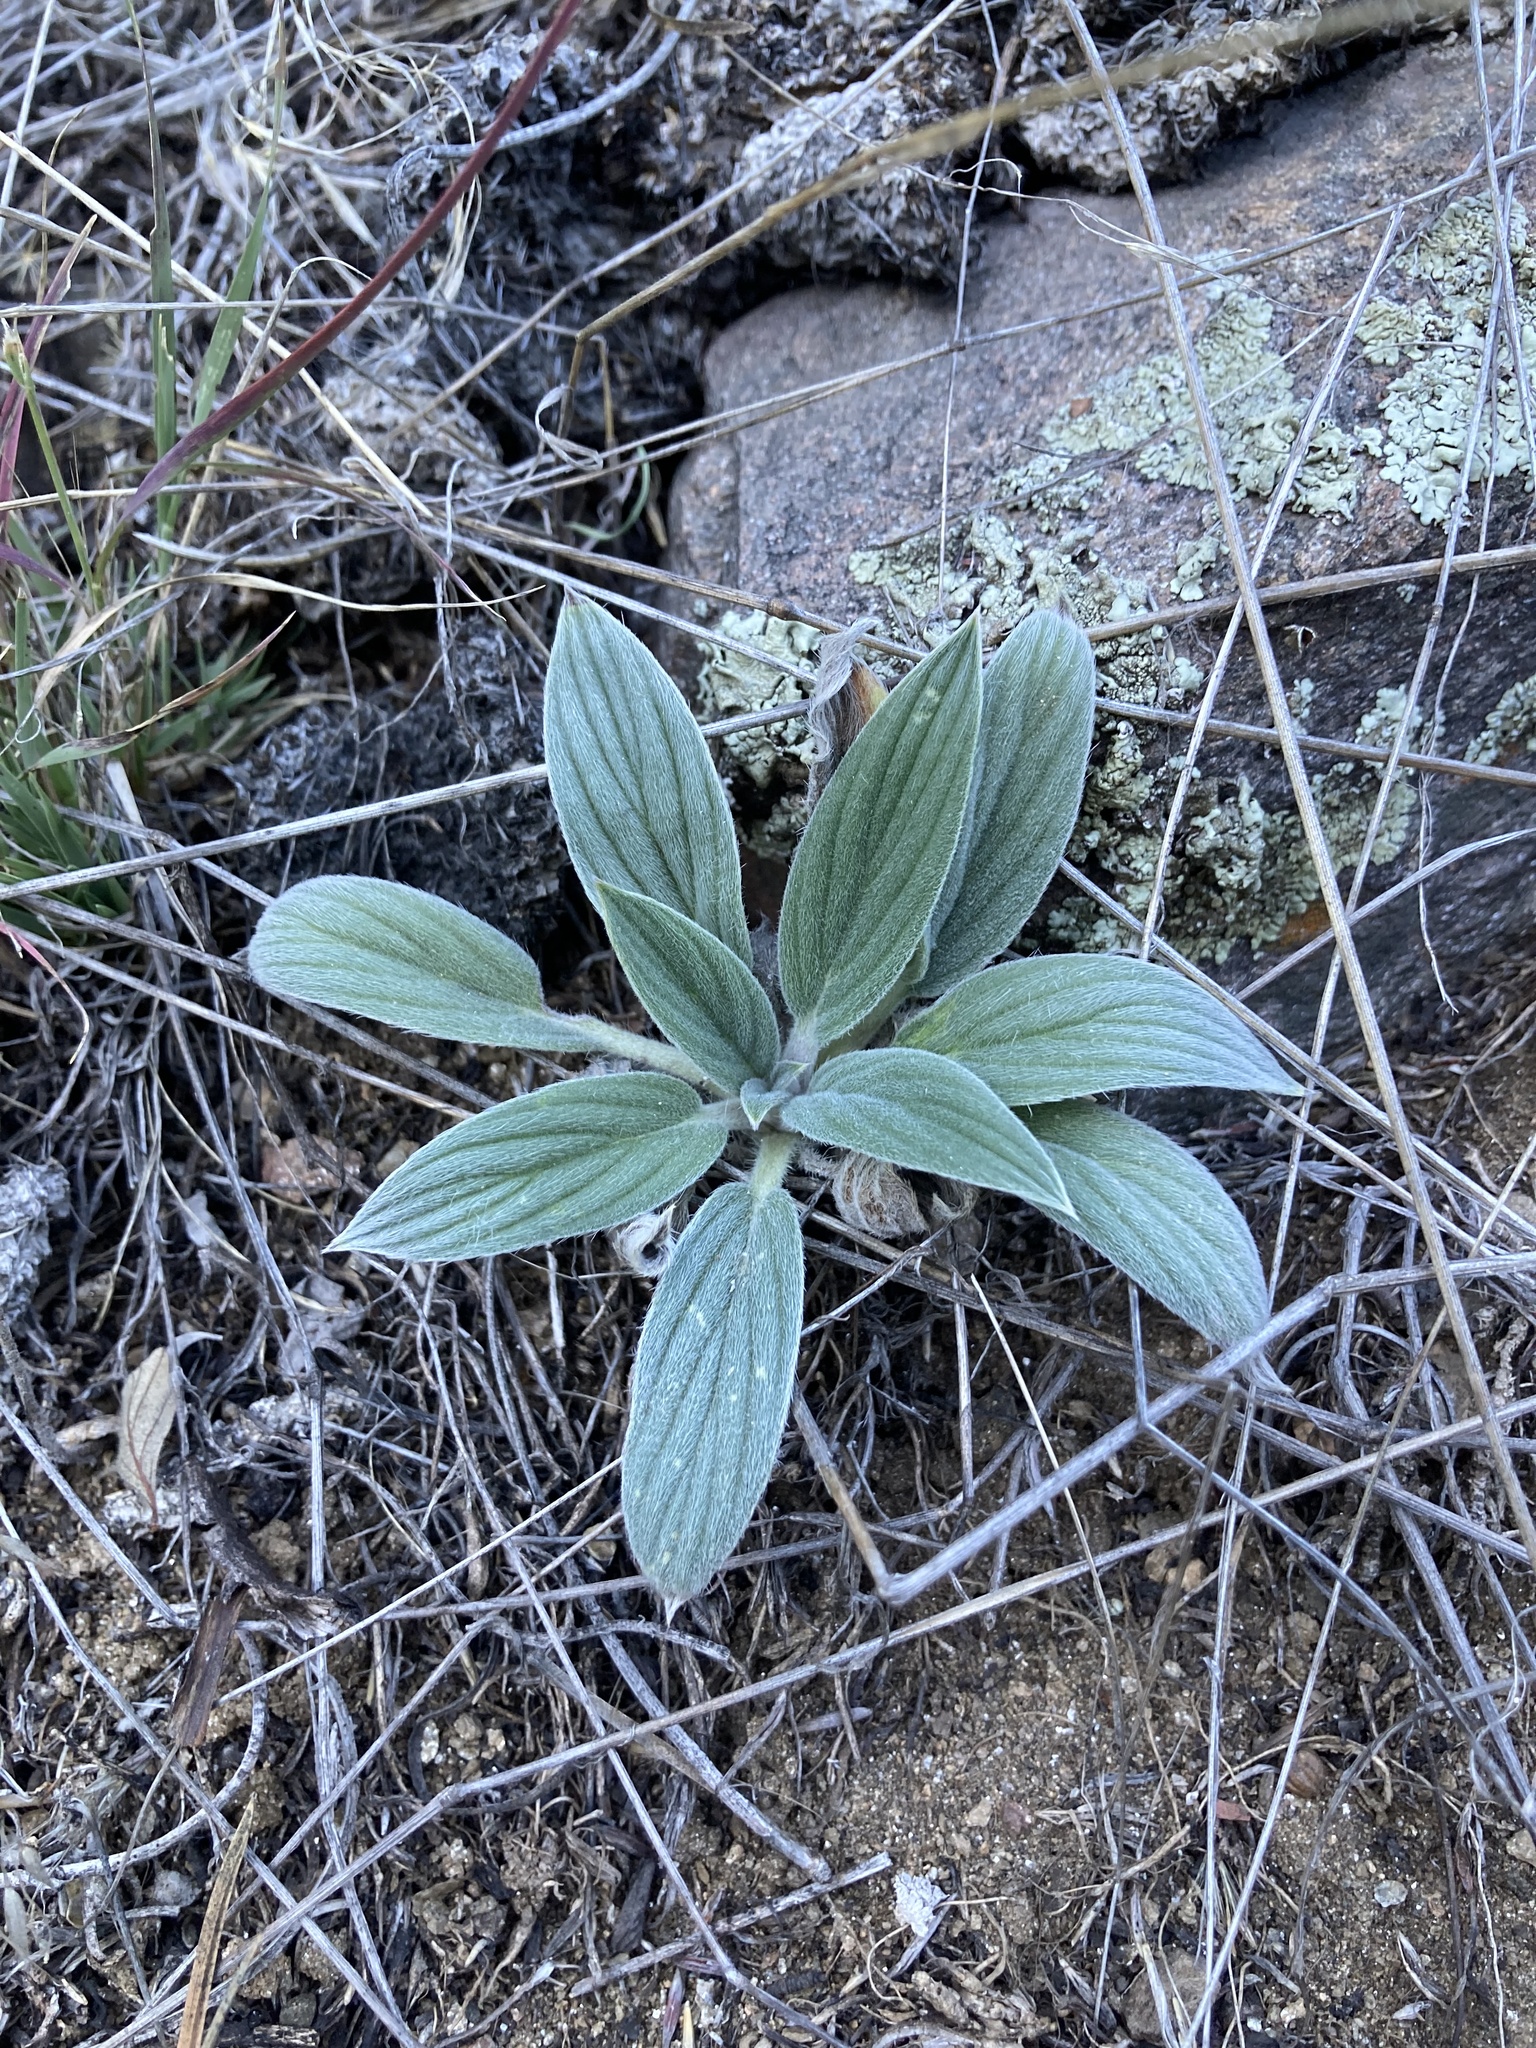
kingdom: Plantae
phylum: Tracheophyta
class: Magnoliopsida
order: Boraginales
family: Hydrophyllaceae
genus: Phacelia
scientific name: Phacelia hastata
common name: Silver-leaved phacelia
